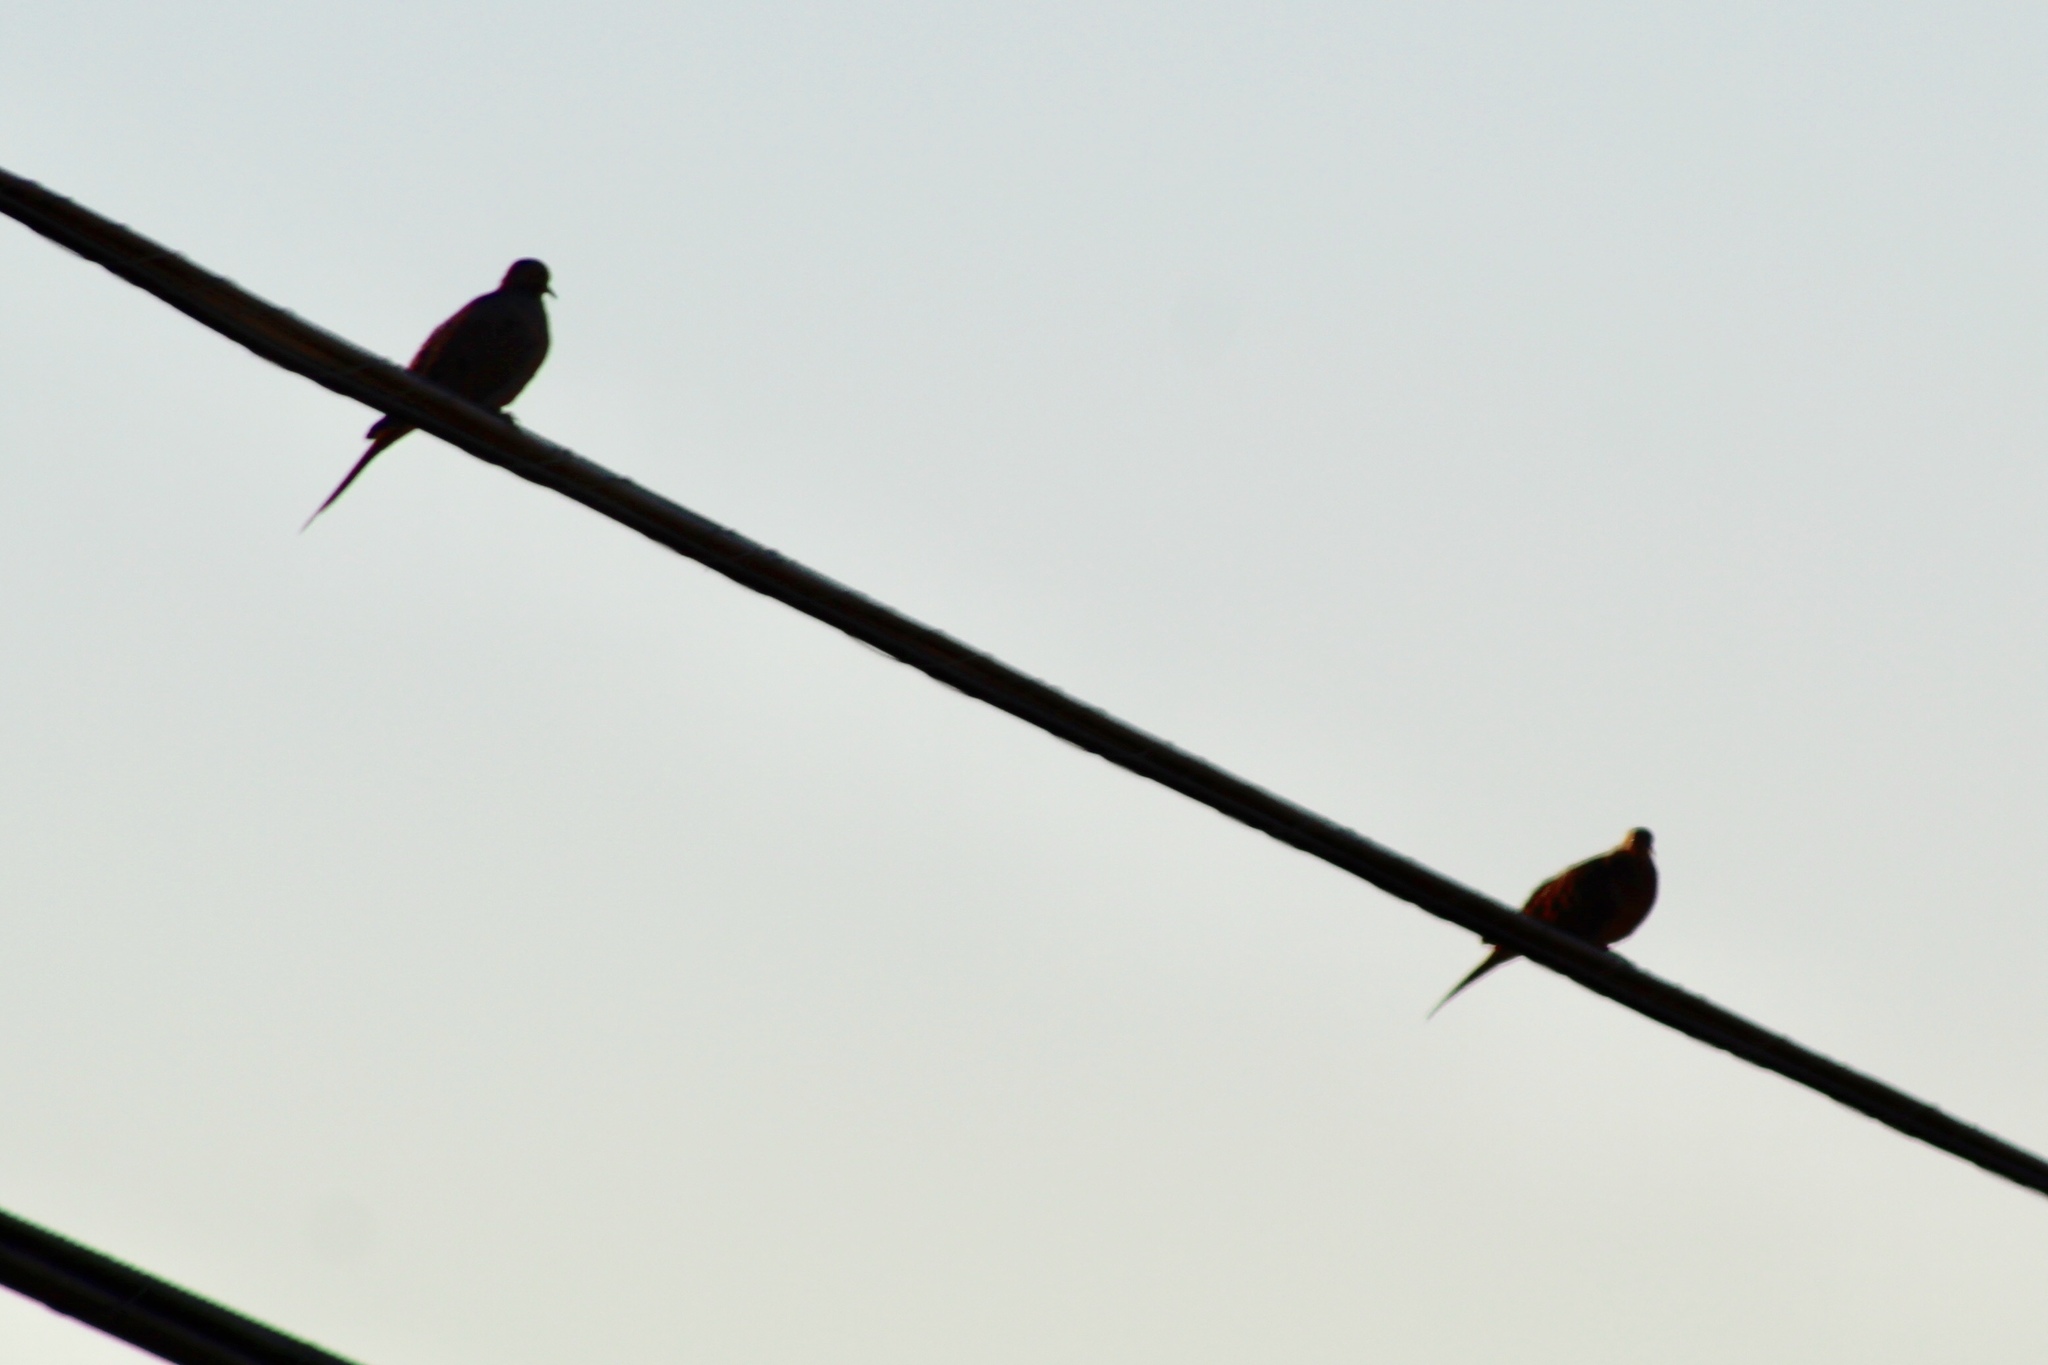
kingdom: Animalia
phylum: Chordata
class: Aves
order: Columbiformes
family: Columbidae
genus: Zenaida
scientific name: Zenaida macroura
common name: Mourning dove
